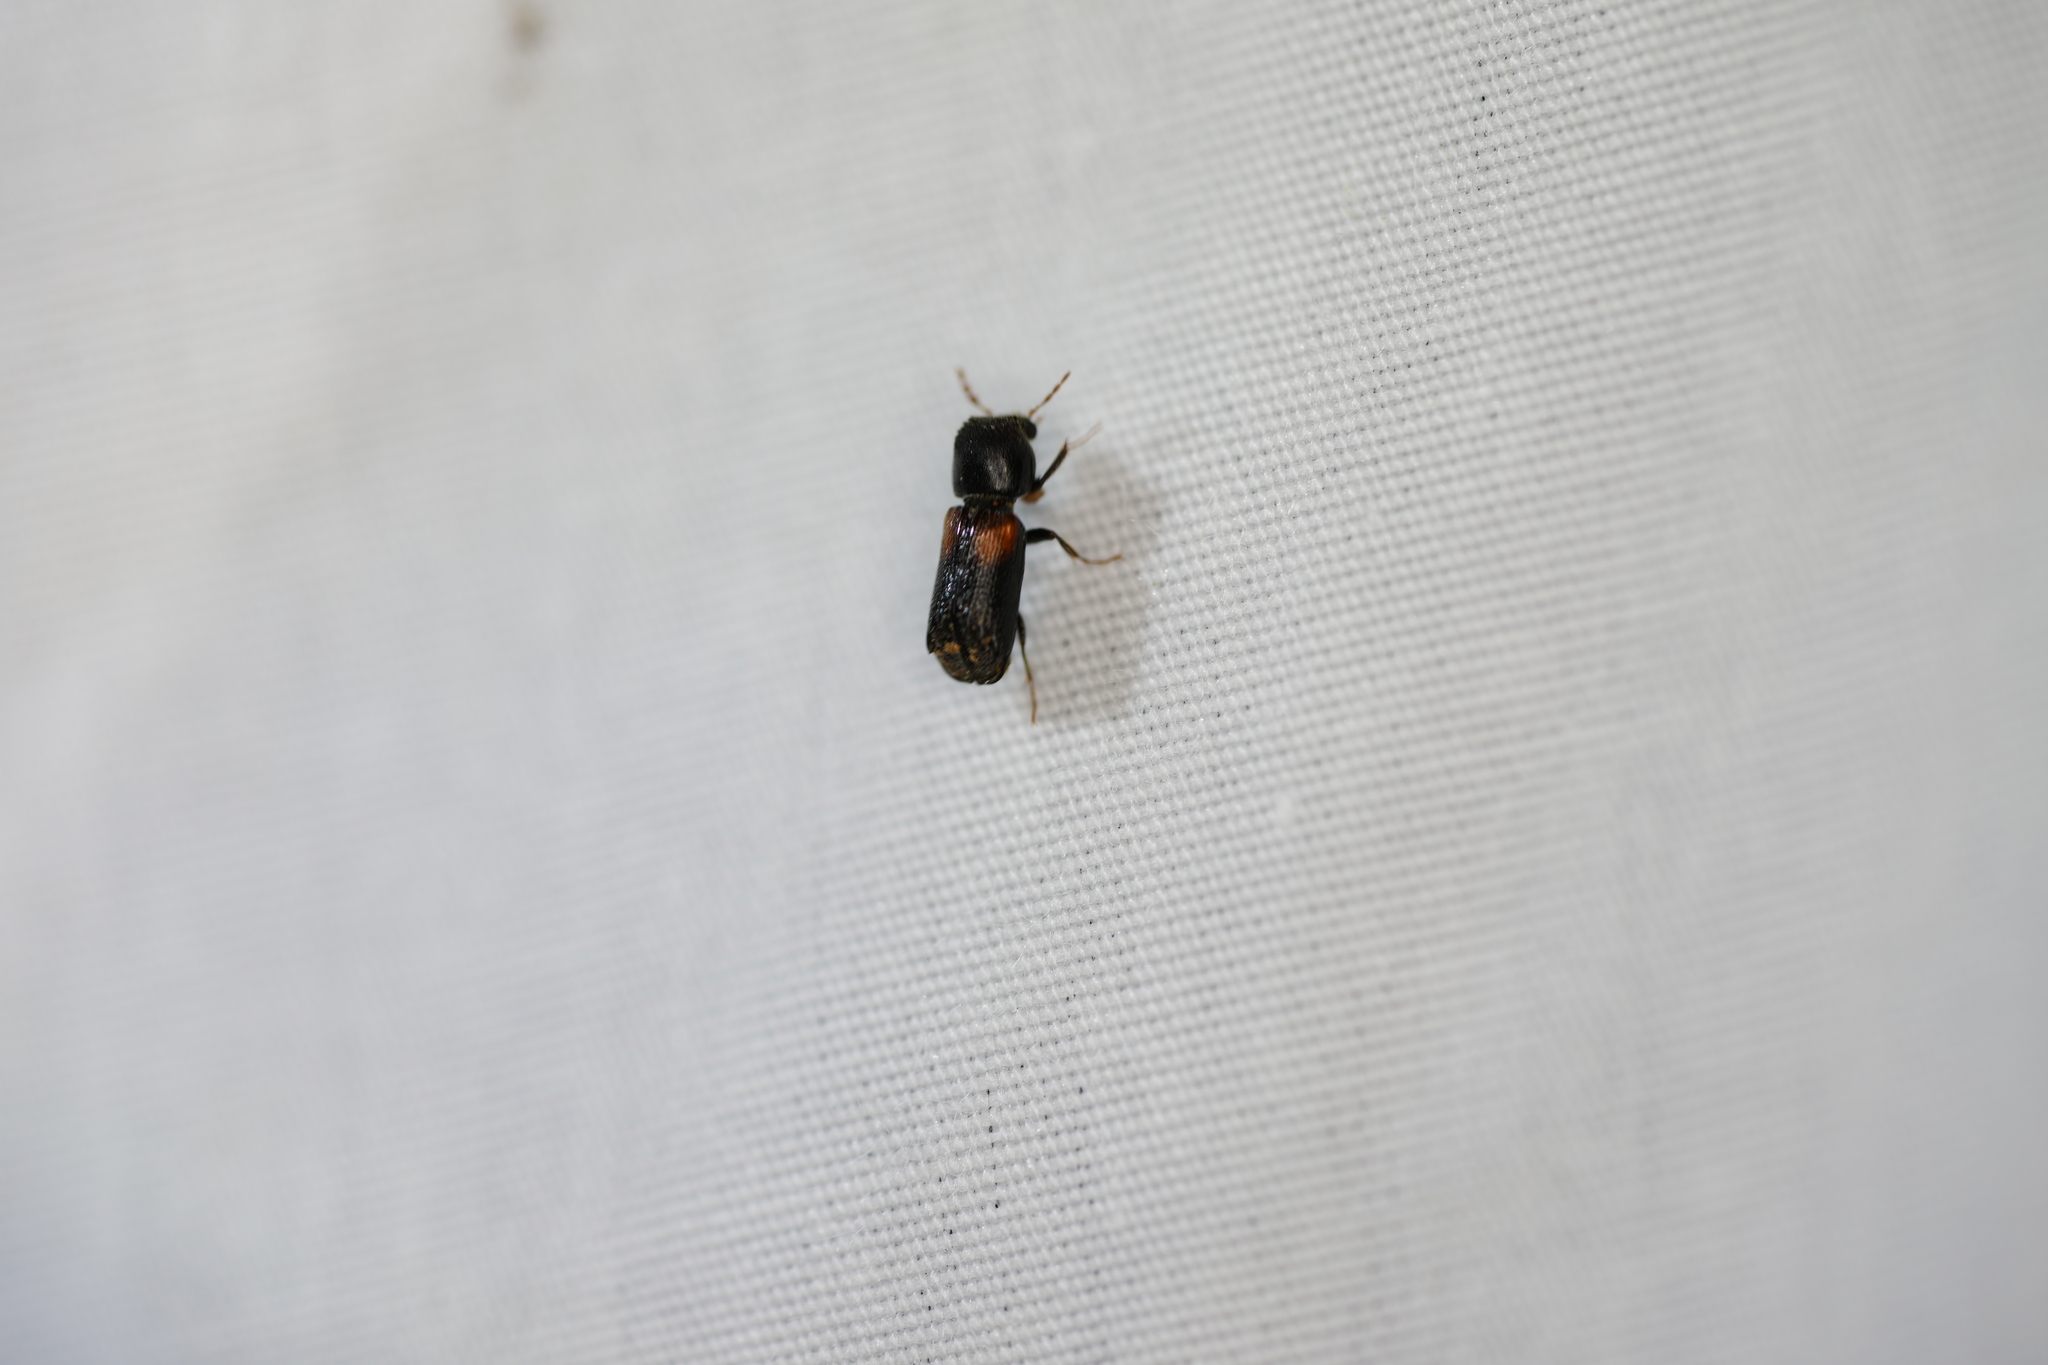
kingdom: Animalia
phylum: Arthropoda
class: Insecta
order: Coleoptera
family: Bostrichidae
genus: Xylobiops
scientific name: Xylobiops basilaris
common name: Red-shouldered bostrichid
